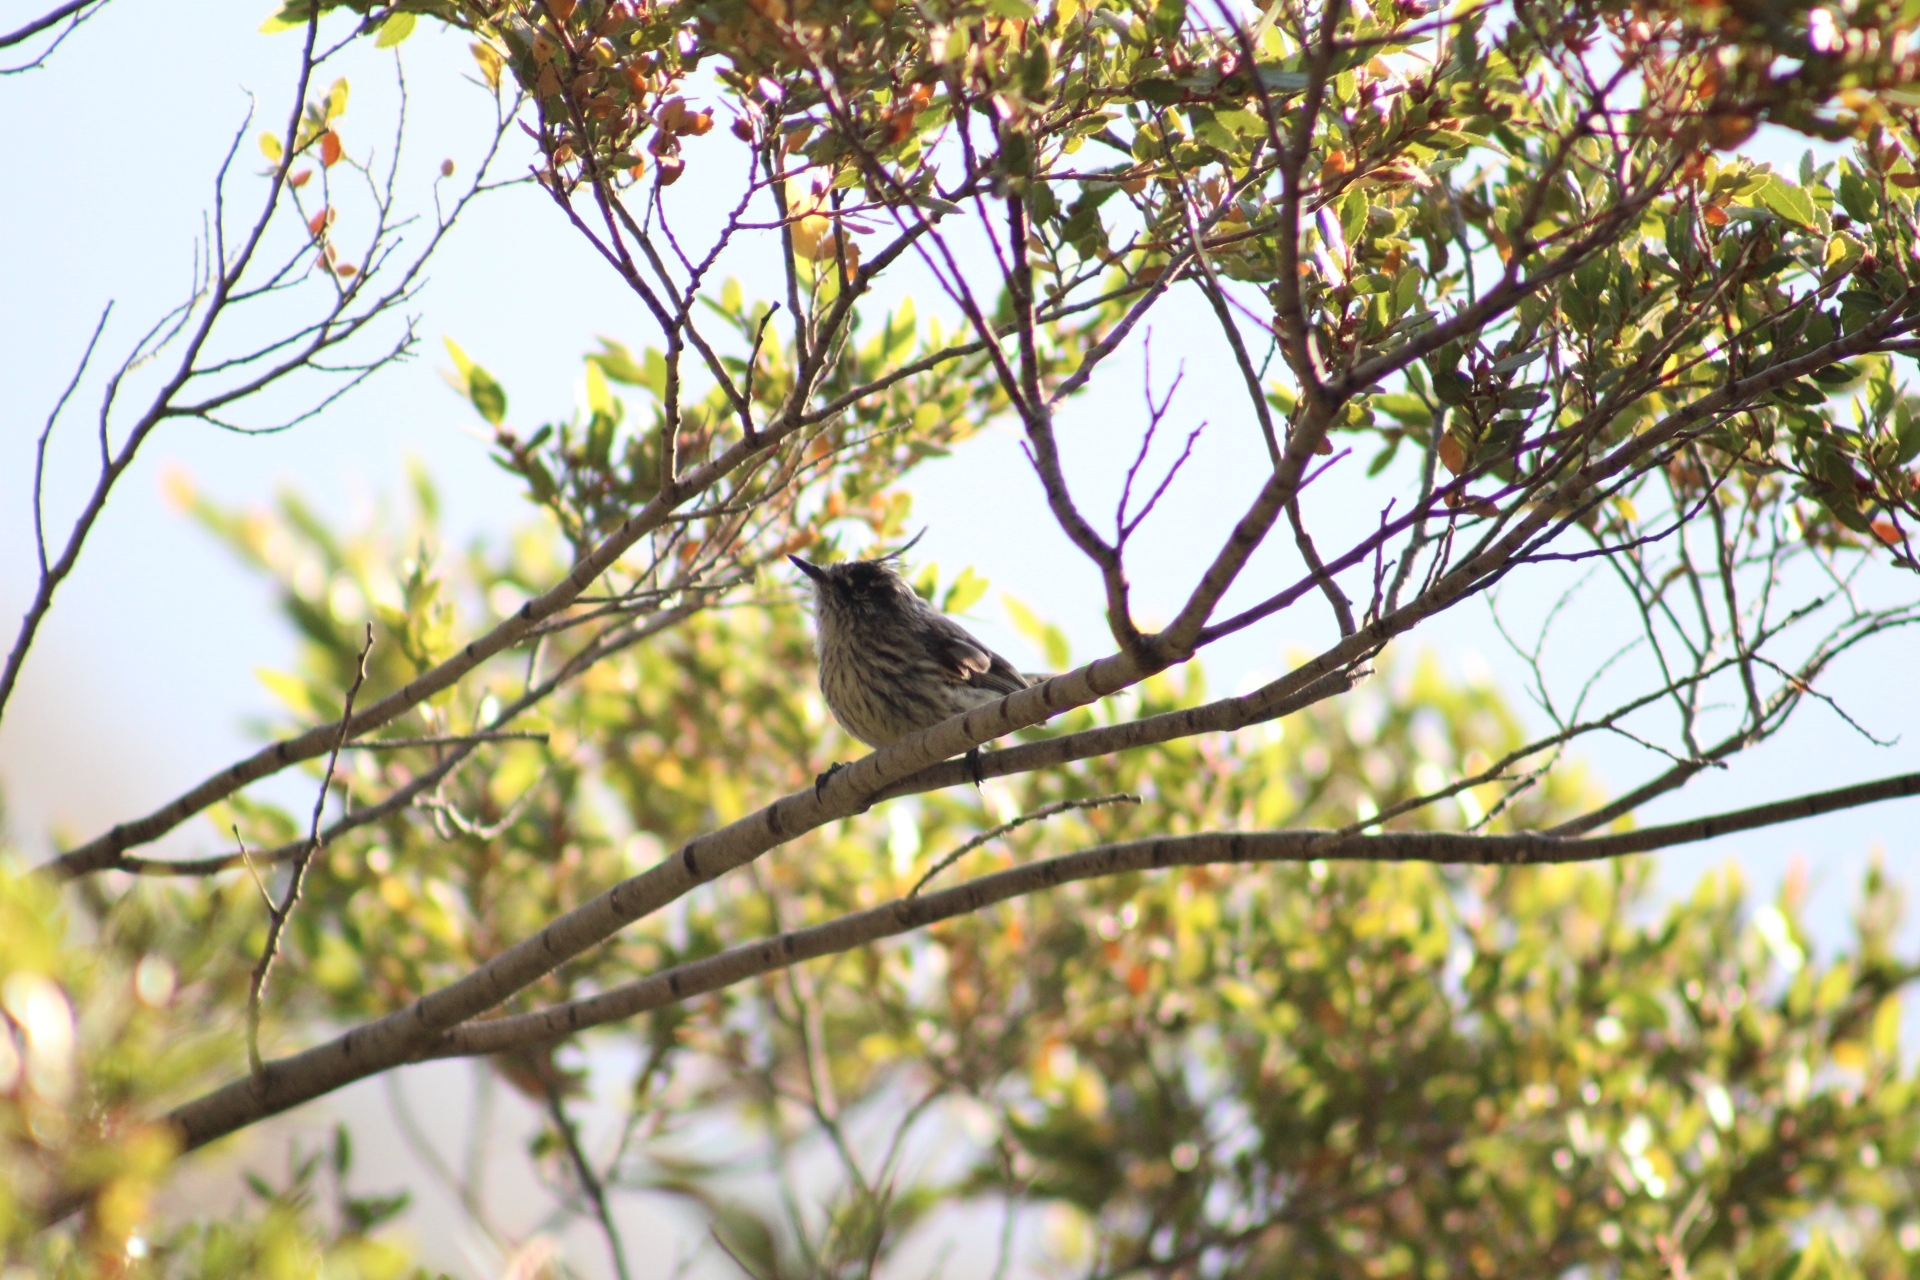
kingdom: Animalia
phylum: Chordata
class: Aves
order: Passeriformes
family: Tyrannidae
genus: Anairetes
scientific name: Anairetes parulus
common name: Tufted tit-tyrant
